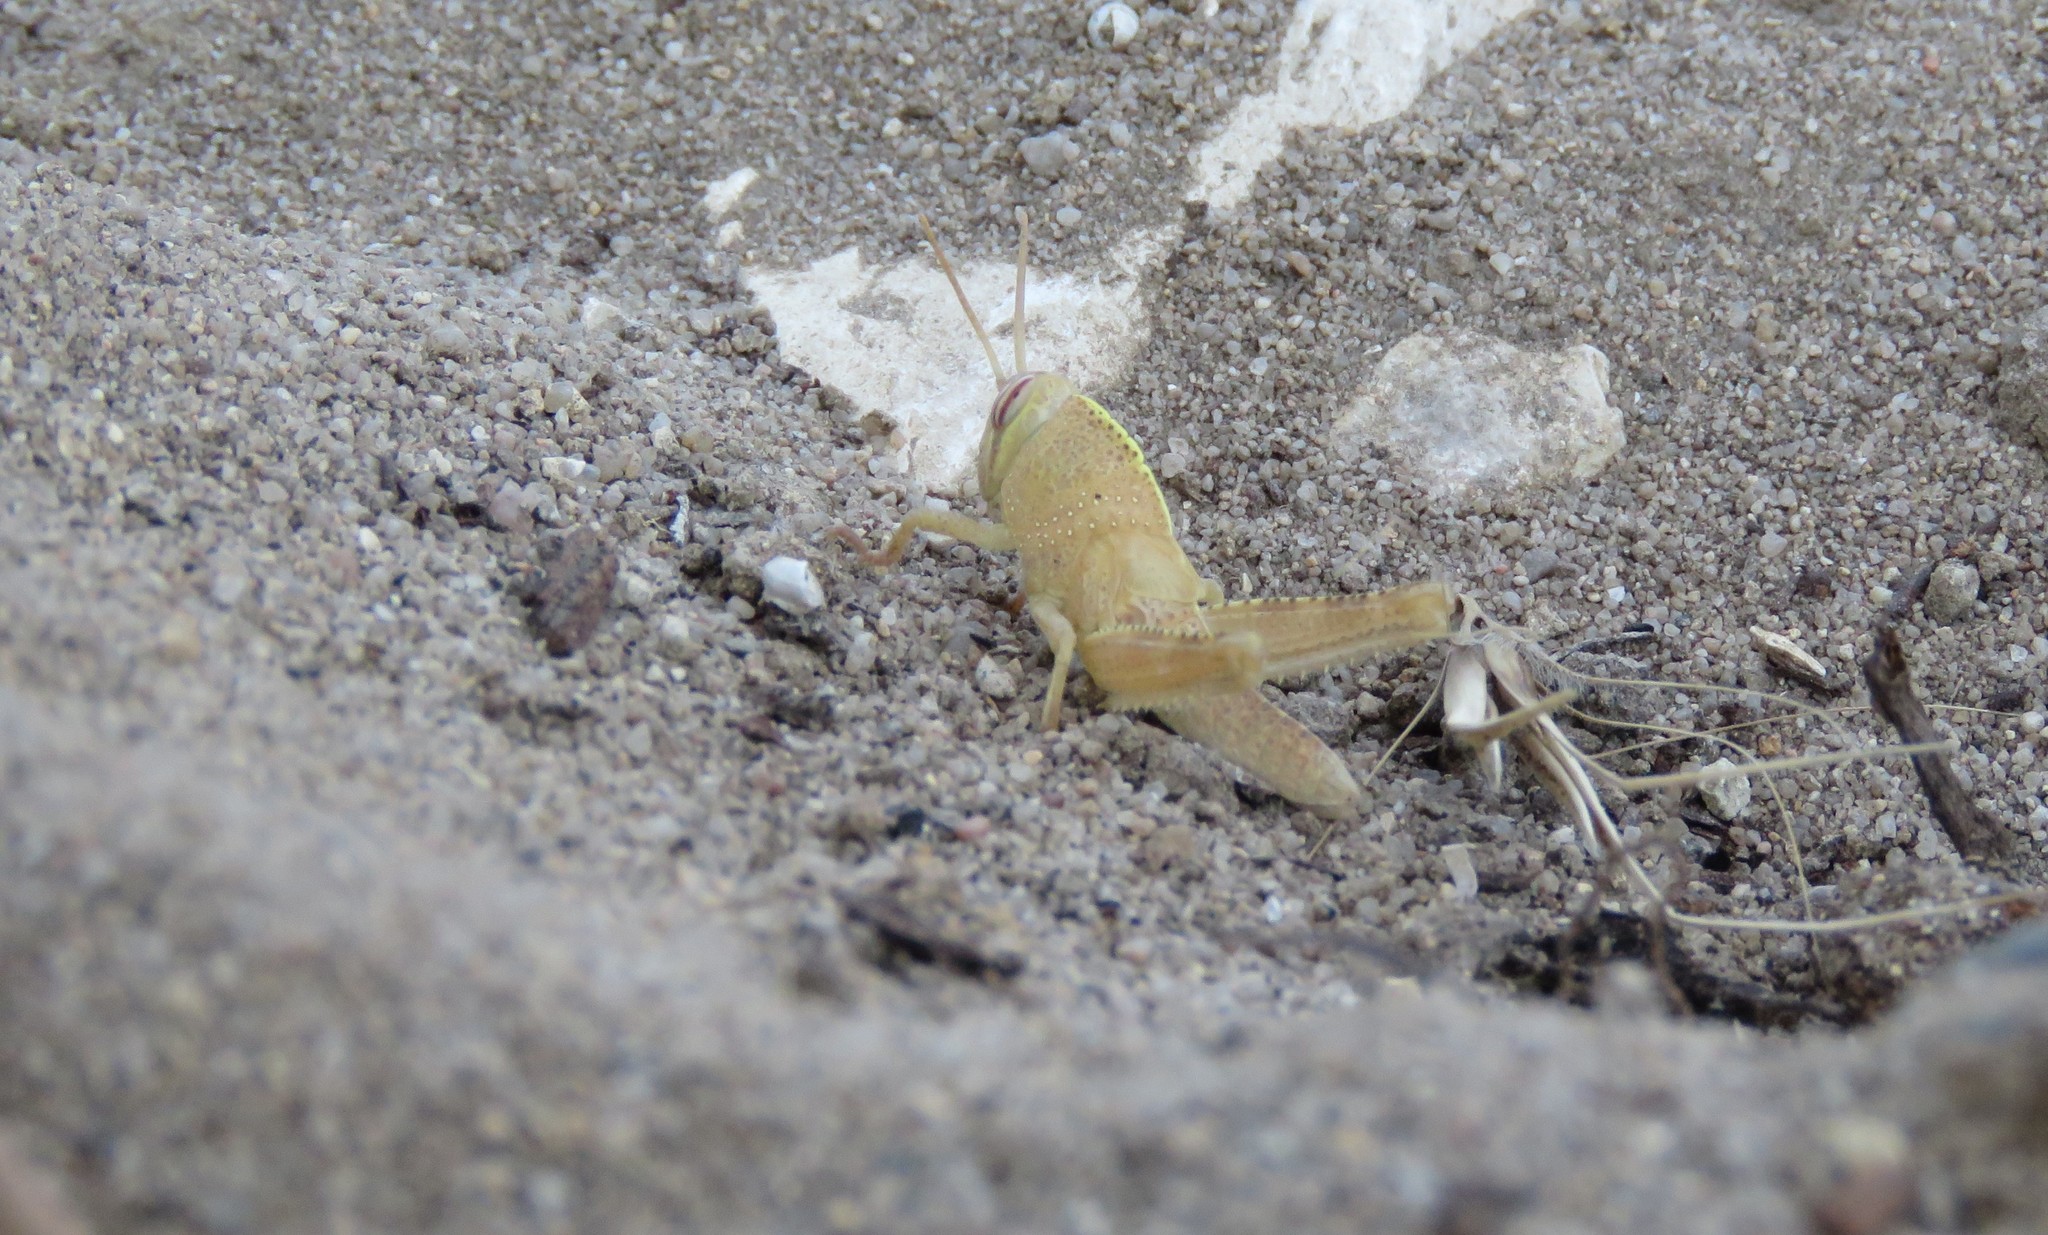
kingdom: Animalia
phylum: Arthropoda
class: Insecta
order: Orthoptera
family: Acrididae
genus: Anacridium
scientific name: Anacridium aegyptium
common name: Egyptian grasshopper
